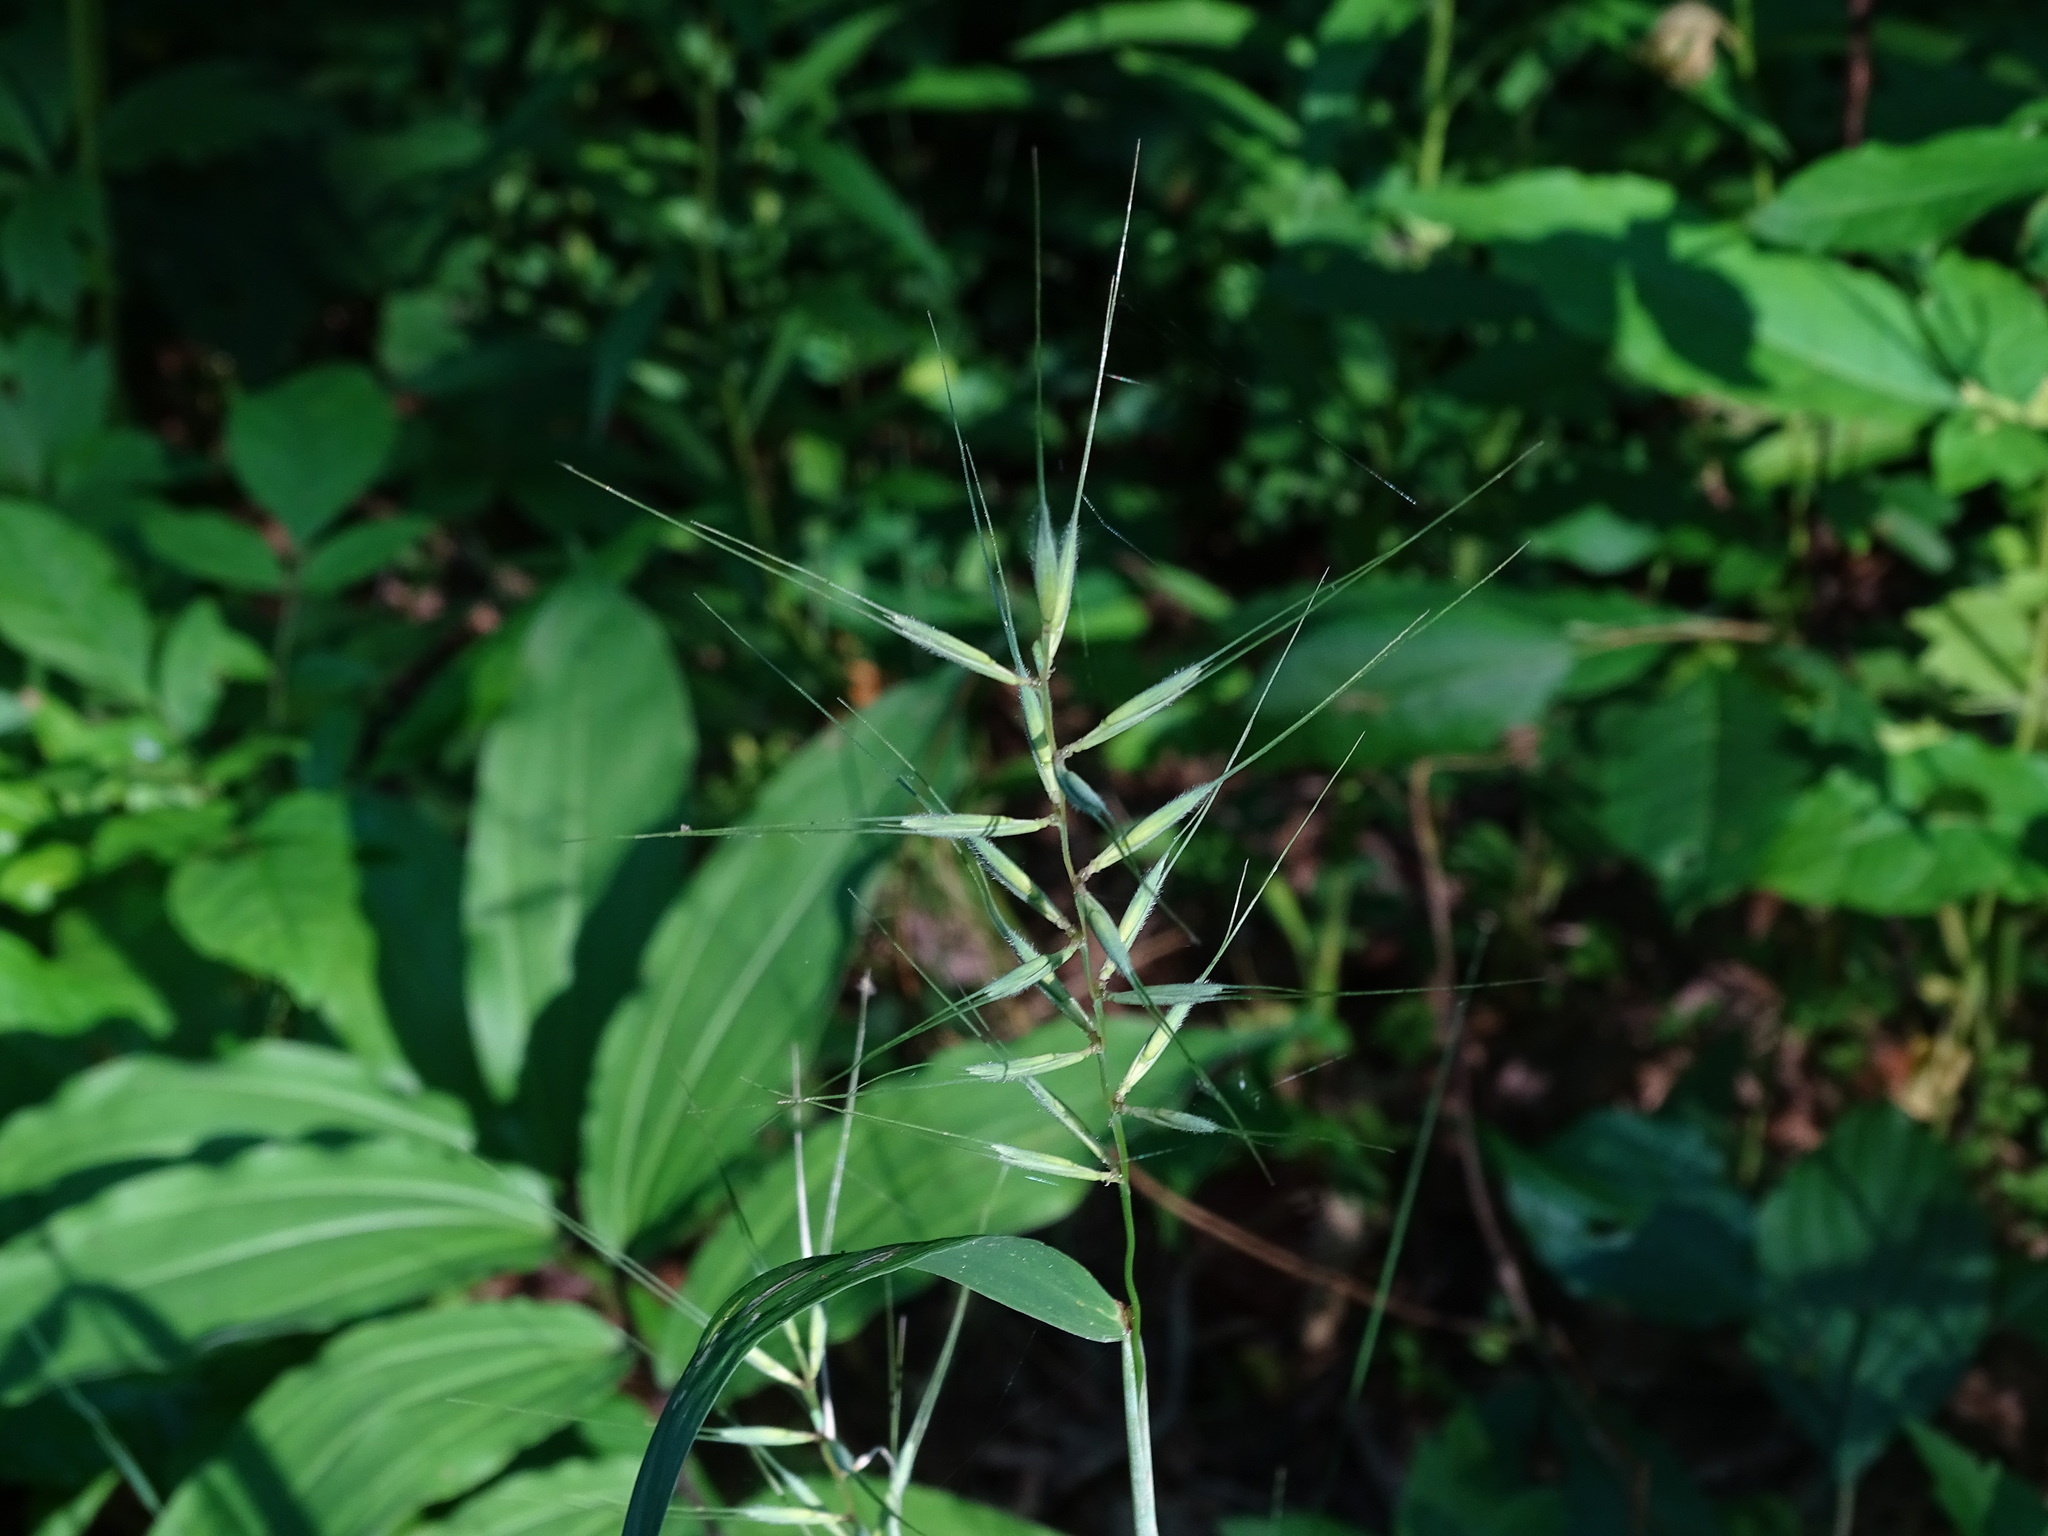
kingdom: Plantae
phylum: Tracheophyta
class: Liliopsida
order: Poales
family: Poaceae
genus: Elymus
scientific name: Elymus hystrix
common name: Bottlebrush grass
